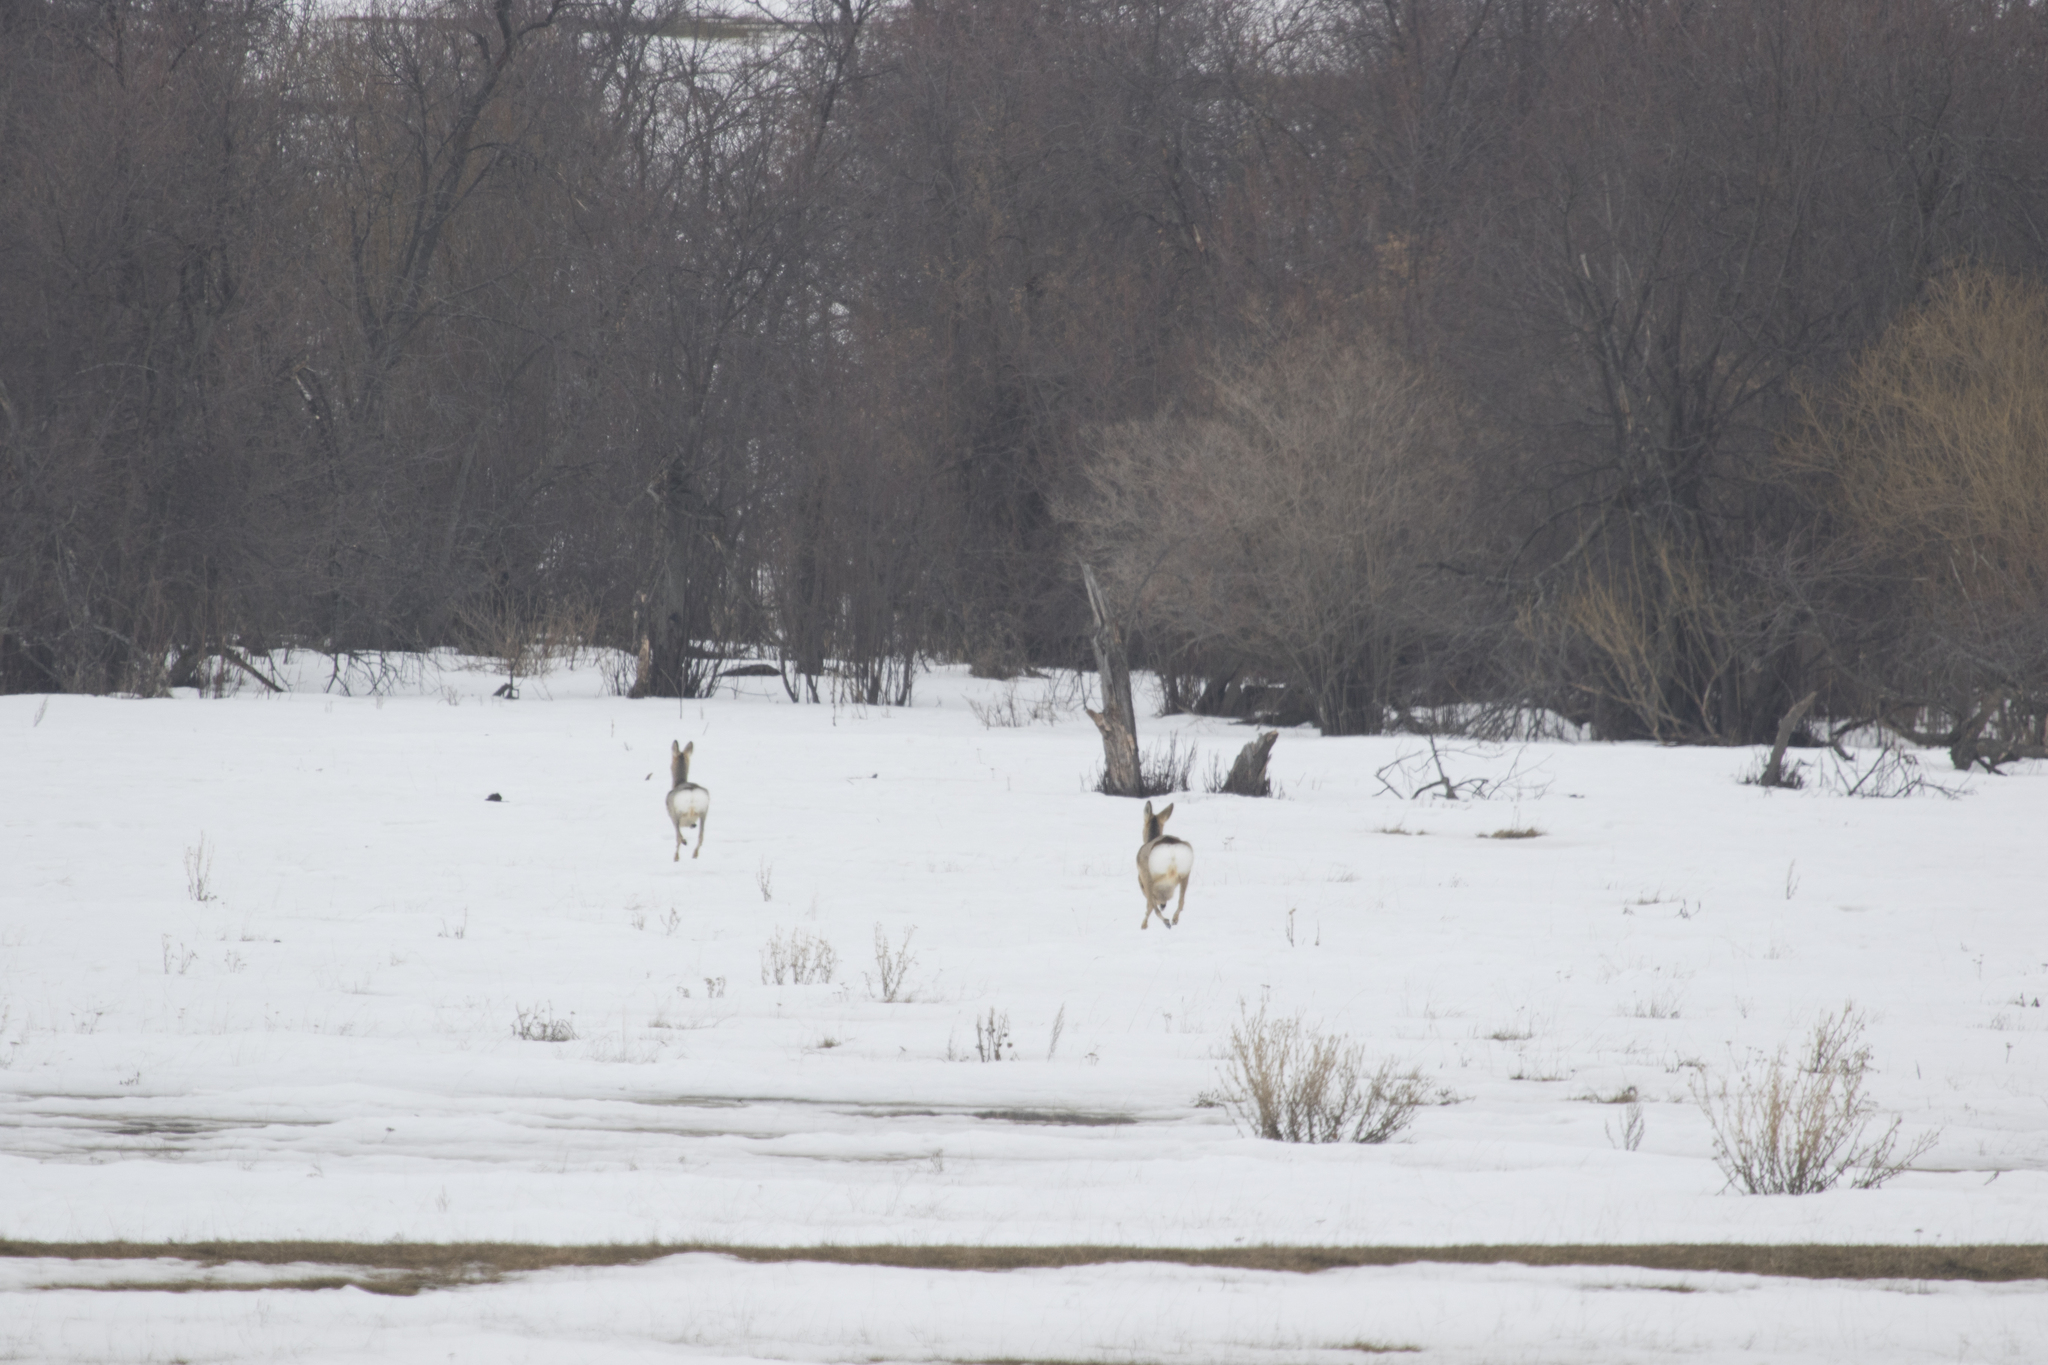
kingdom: Animalia
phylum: Chordata
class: Mammalia
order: Artiodactyla
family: Cervidae
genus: Capreolus
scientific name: Capreolus pygargus
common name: Siberian roe
